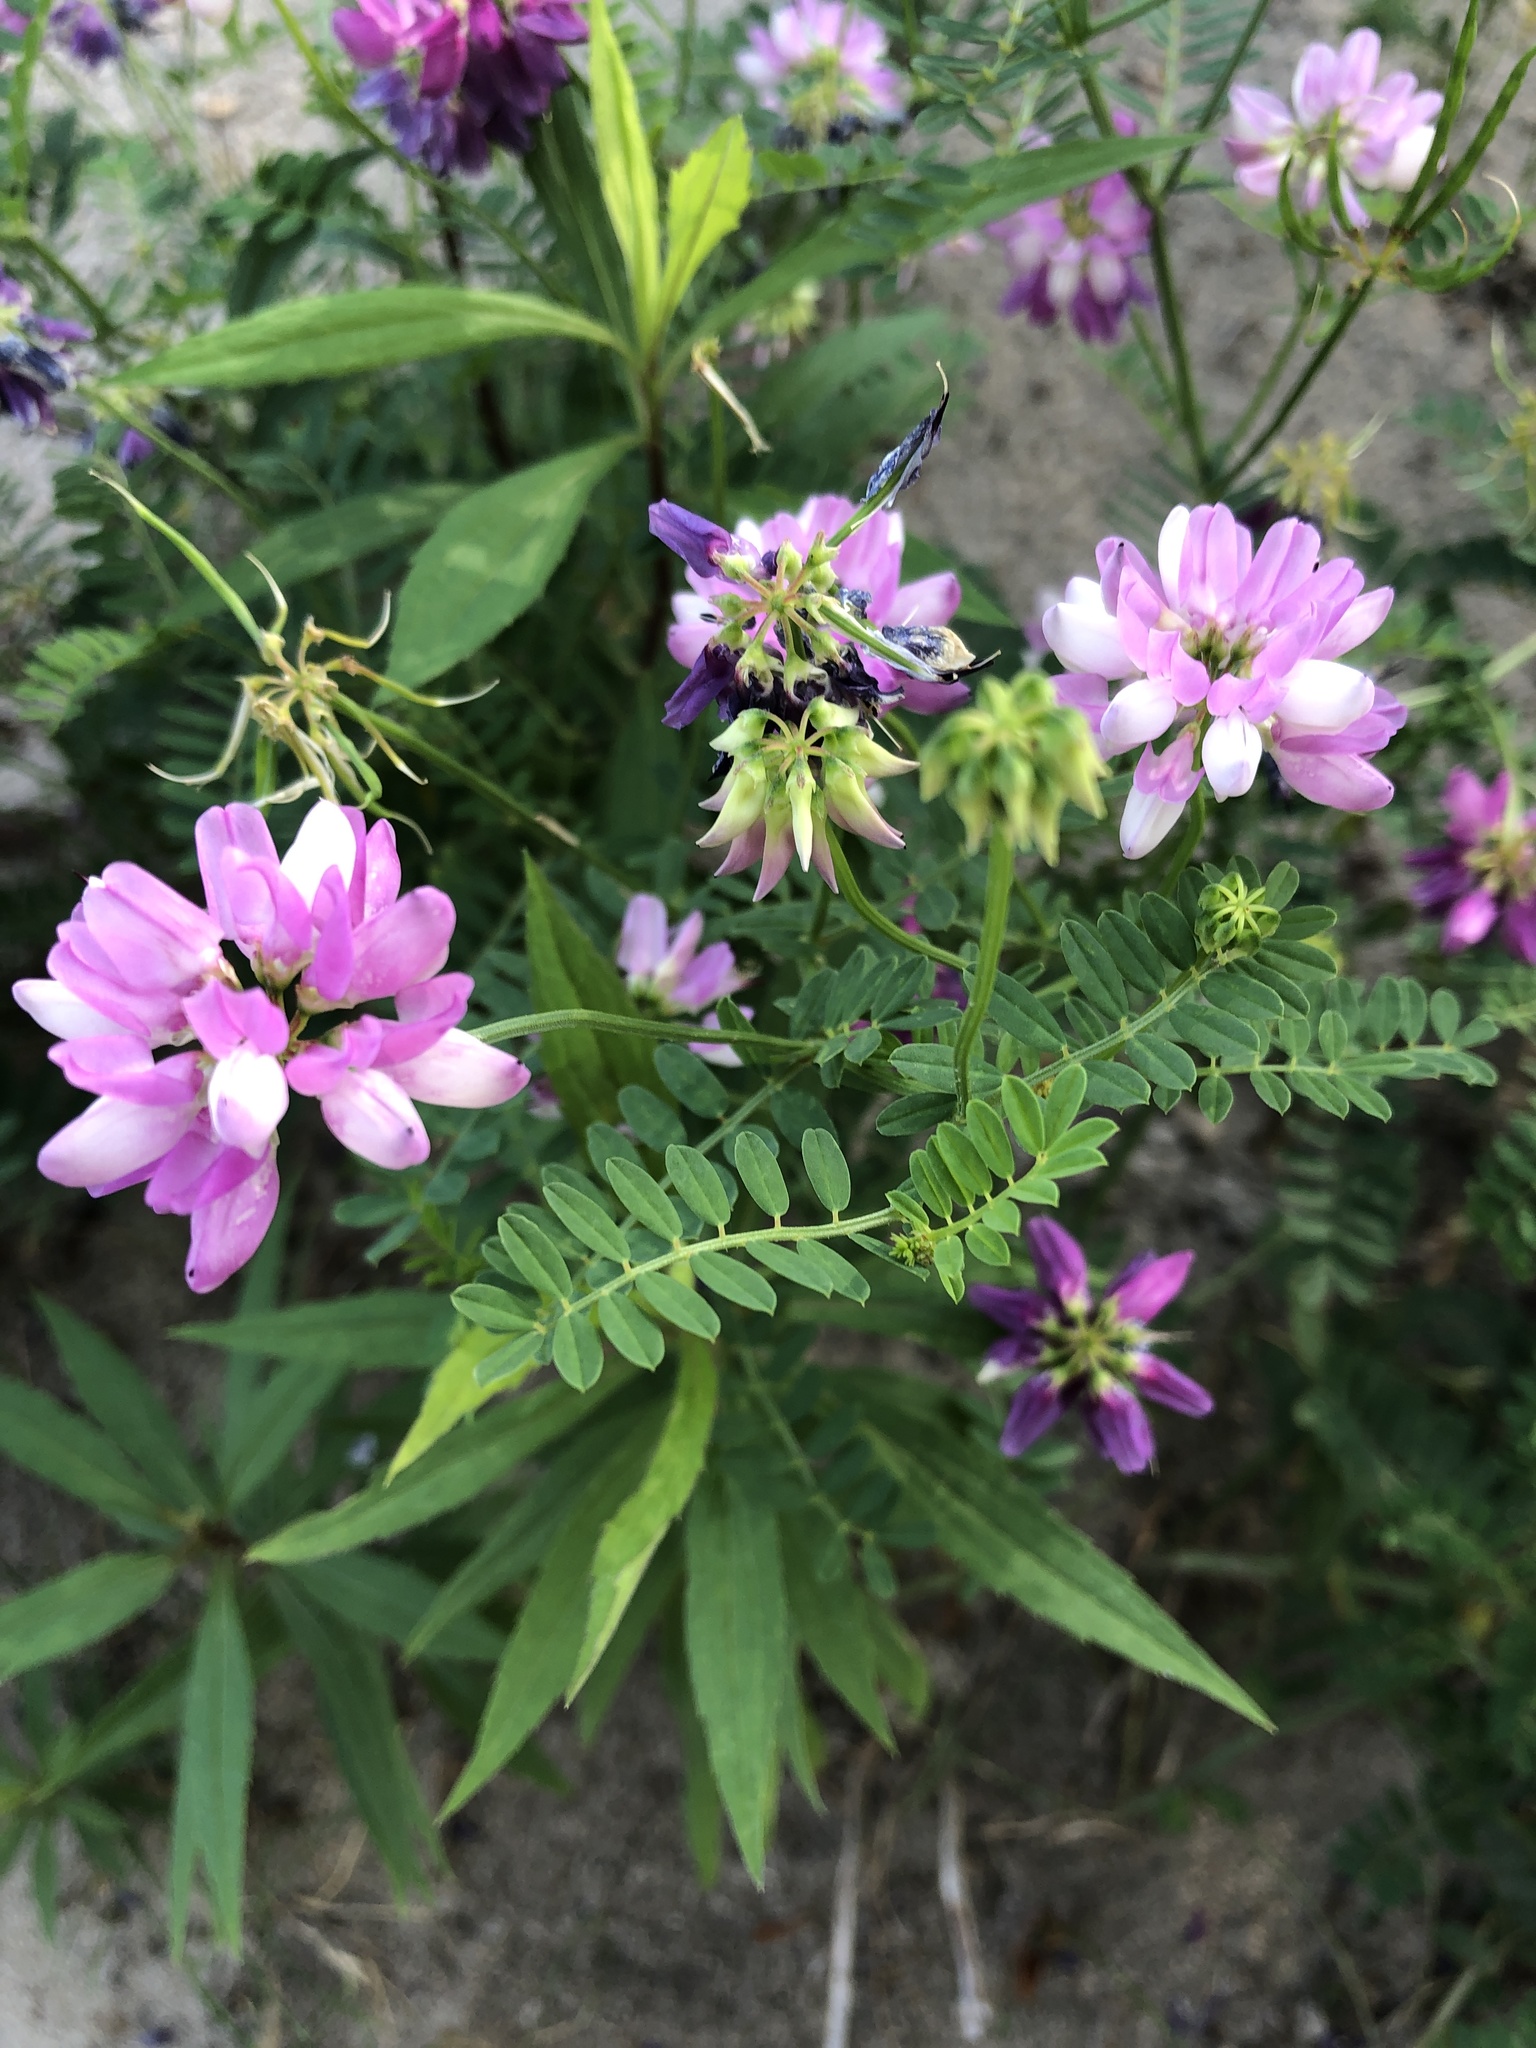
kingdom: Plantae
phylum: Tracheophyta
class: Magnoliopsida
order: Fabales
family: Fabaceae
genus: Coronilla
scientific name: Coronilla varia
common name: Crownvetch
